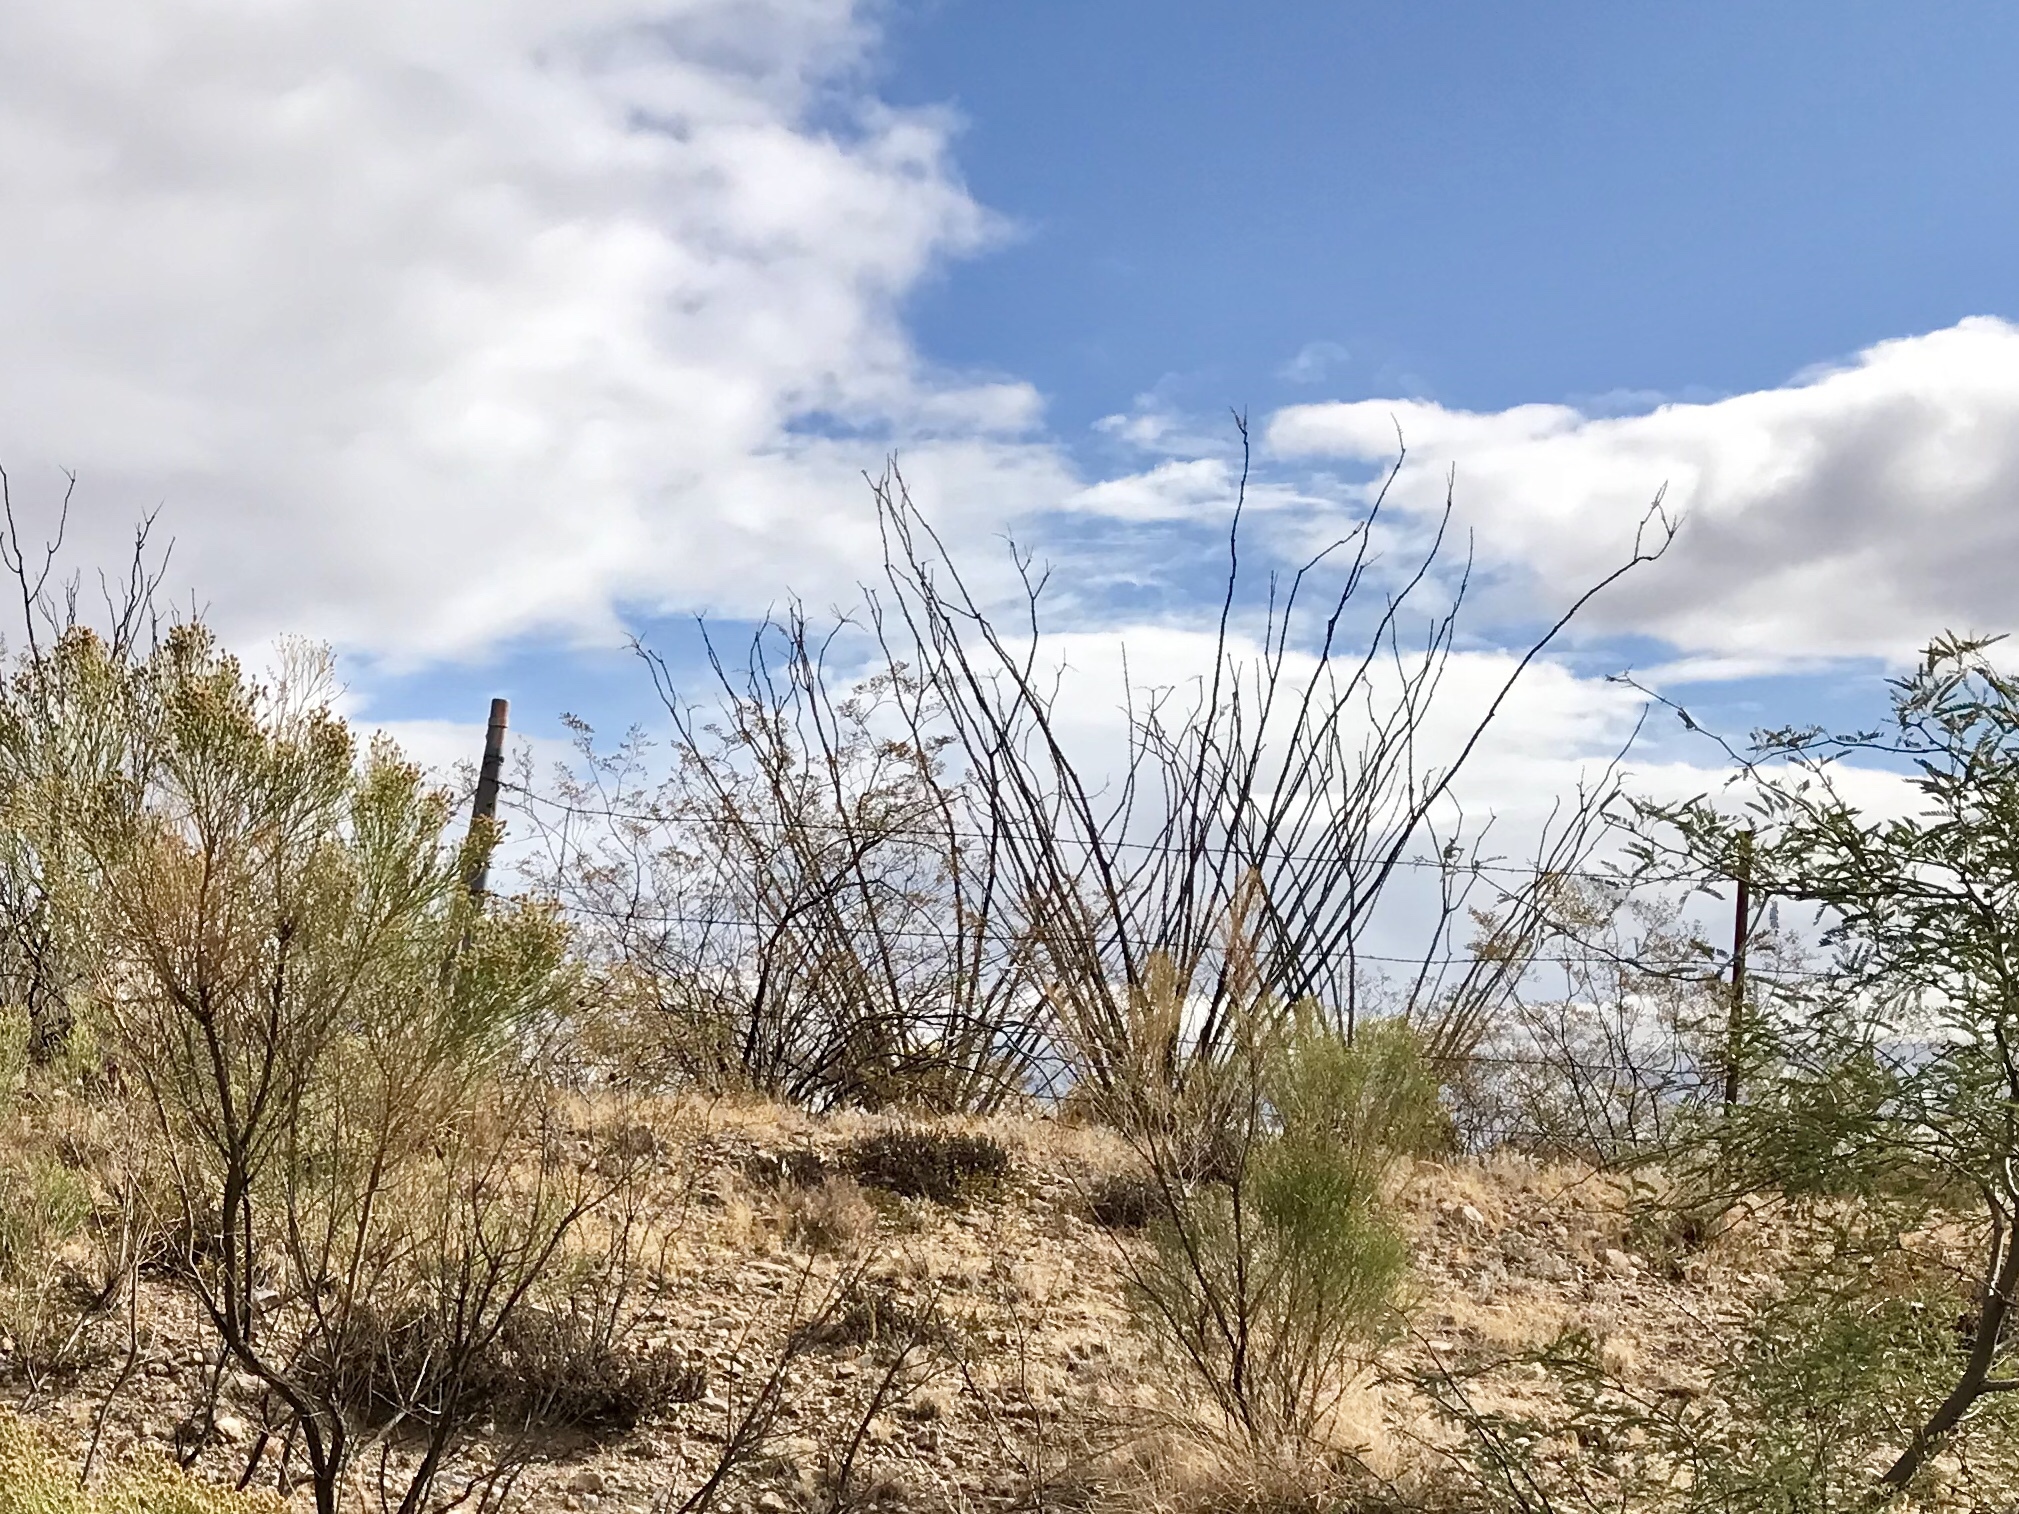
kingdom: Plantae
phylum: Tracheophyta
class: Magnoliopsida
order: Ericales
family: Fouquieriaceae
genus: Fouquieria
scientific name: Fouquieria splendens
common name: Vine-cactus
